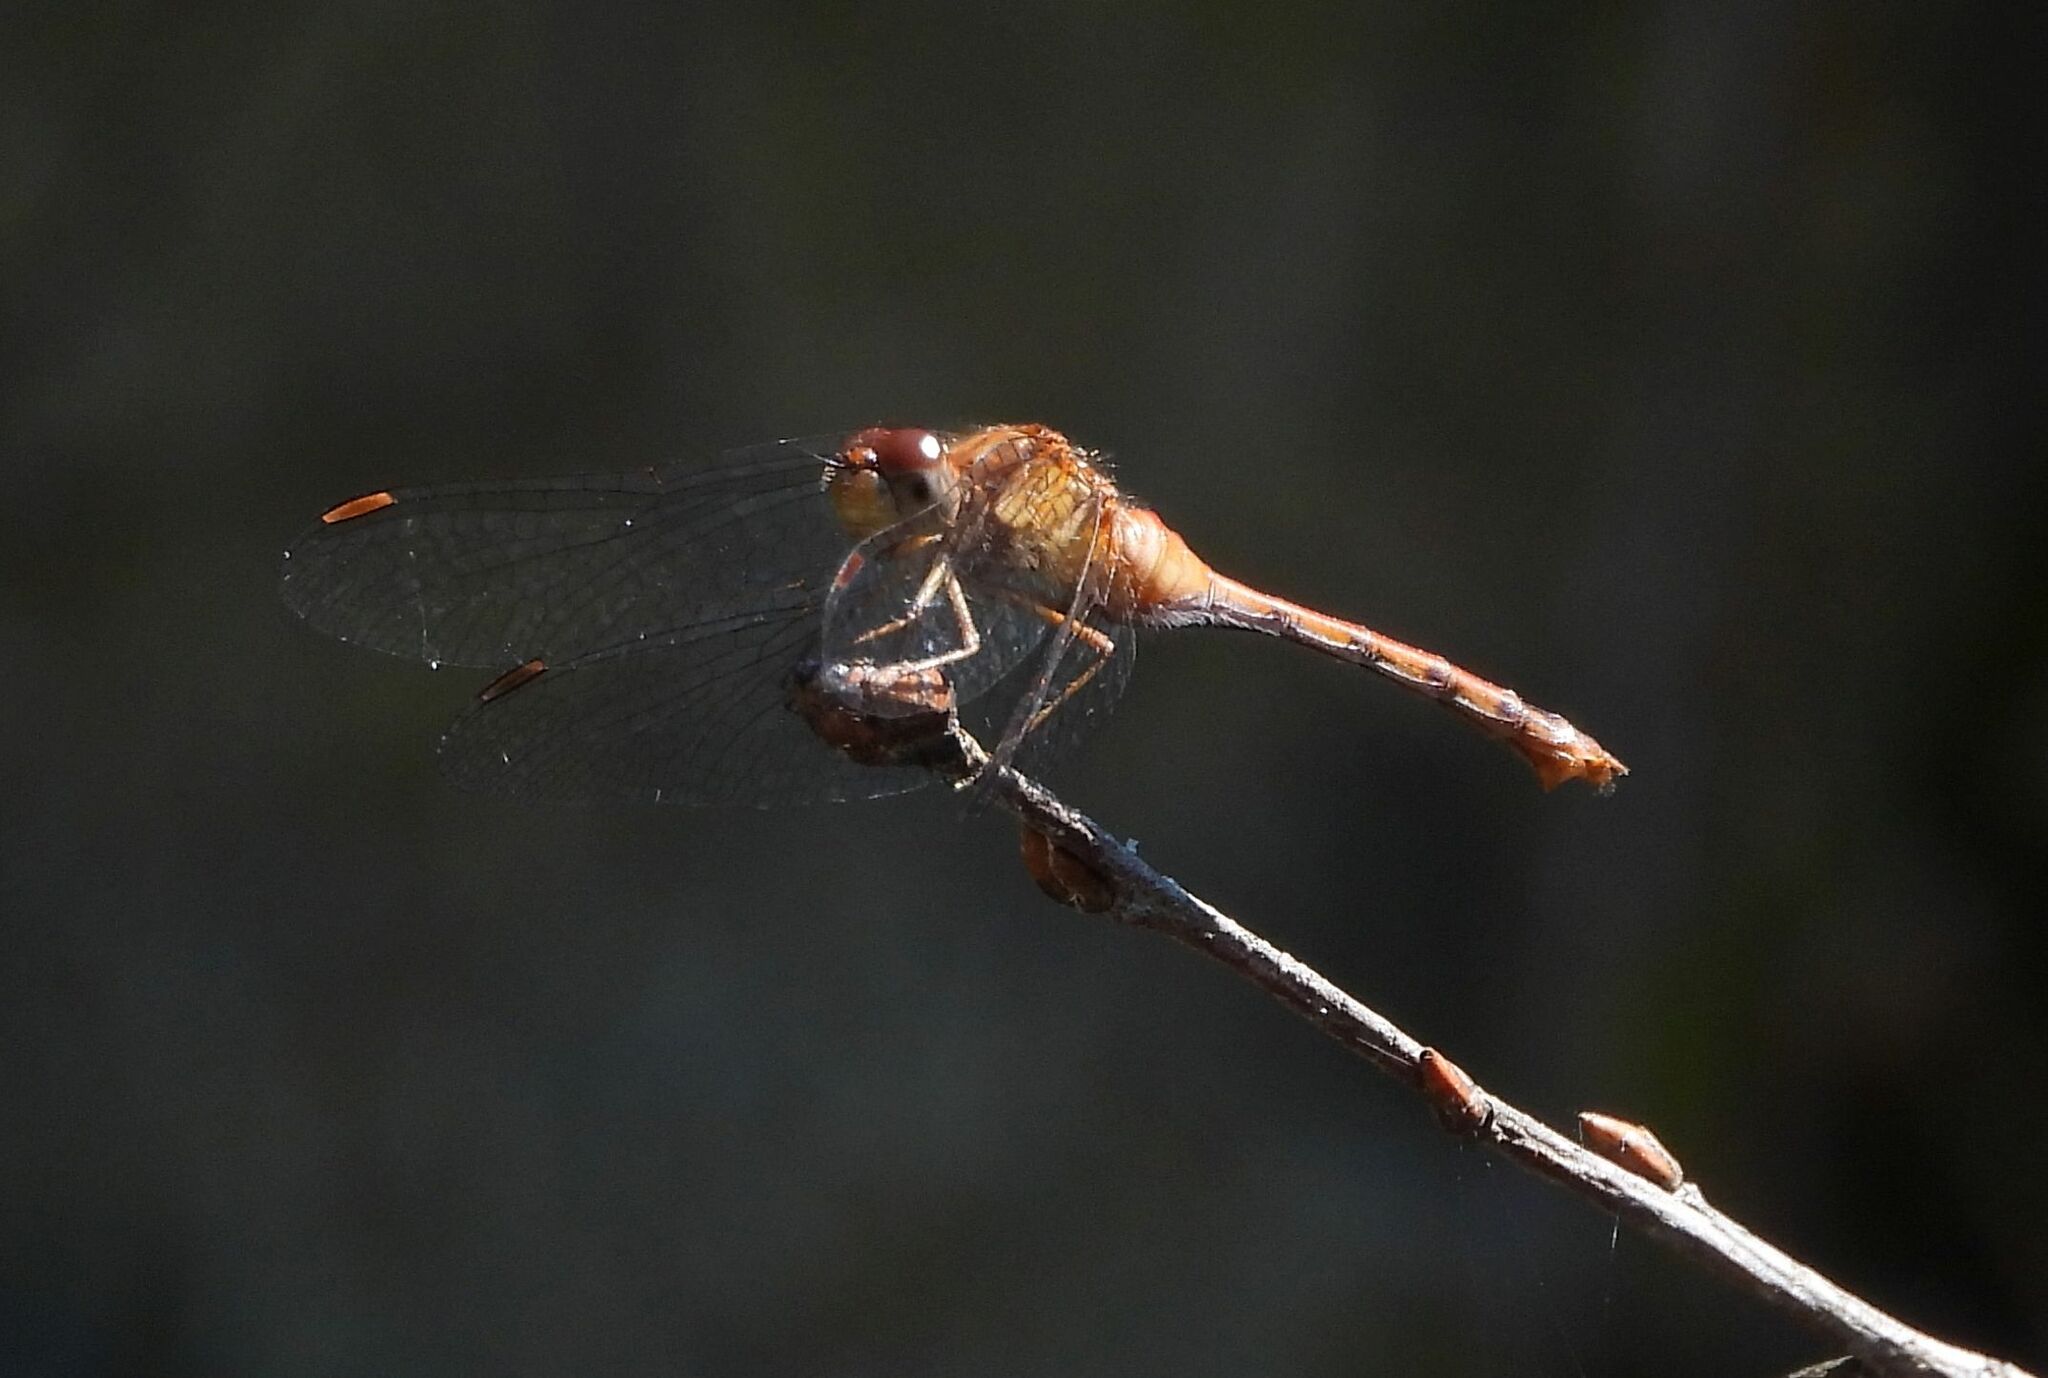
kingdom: Animalia
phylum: Arthropoda
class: Insecta
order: Odonata
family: Libellulidae
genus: Sympetrum
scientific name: Sympetrum vicinum
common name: Autumn meadowhawk
